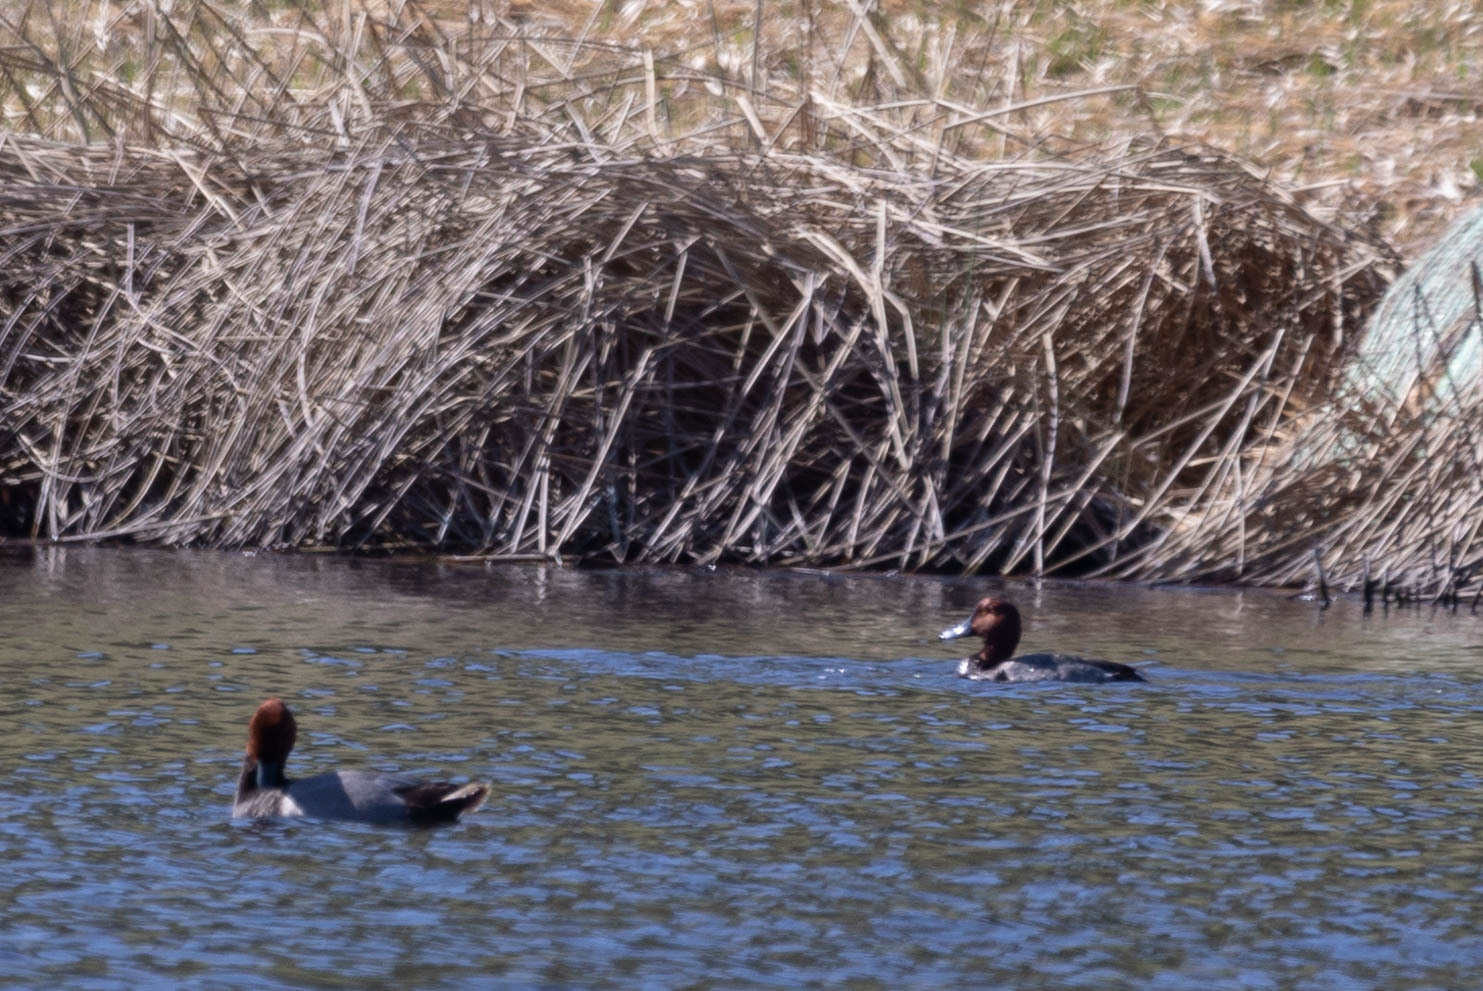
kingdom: Animalia
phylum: Chordata
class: Aves
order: Anseriformes
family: Anatidae
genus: Aythya
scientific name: Aythya americana
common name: Redhead
